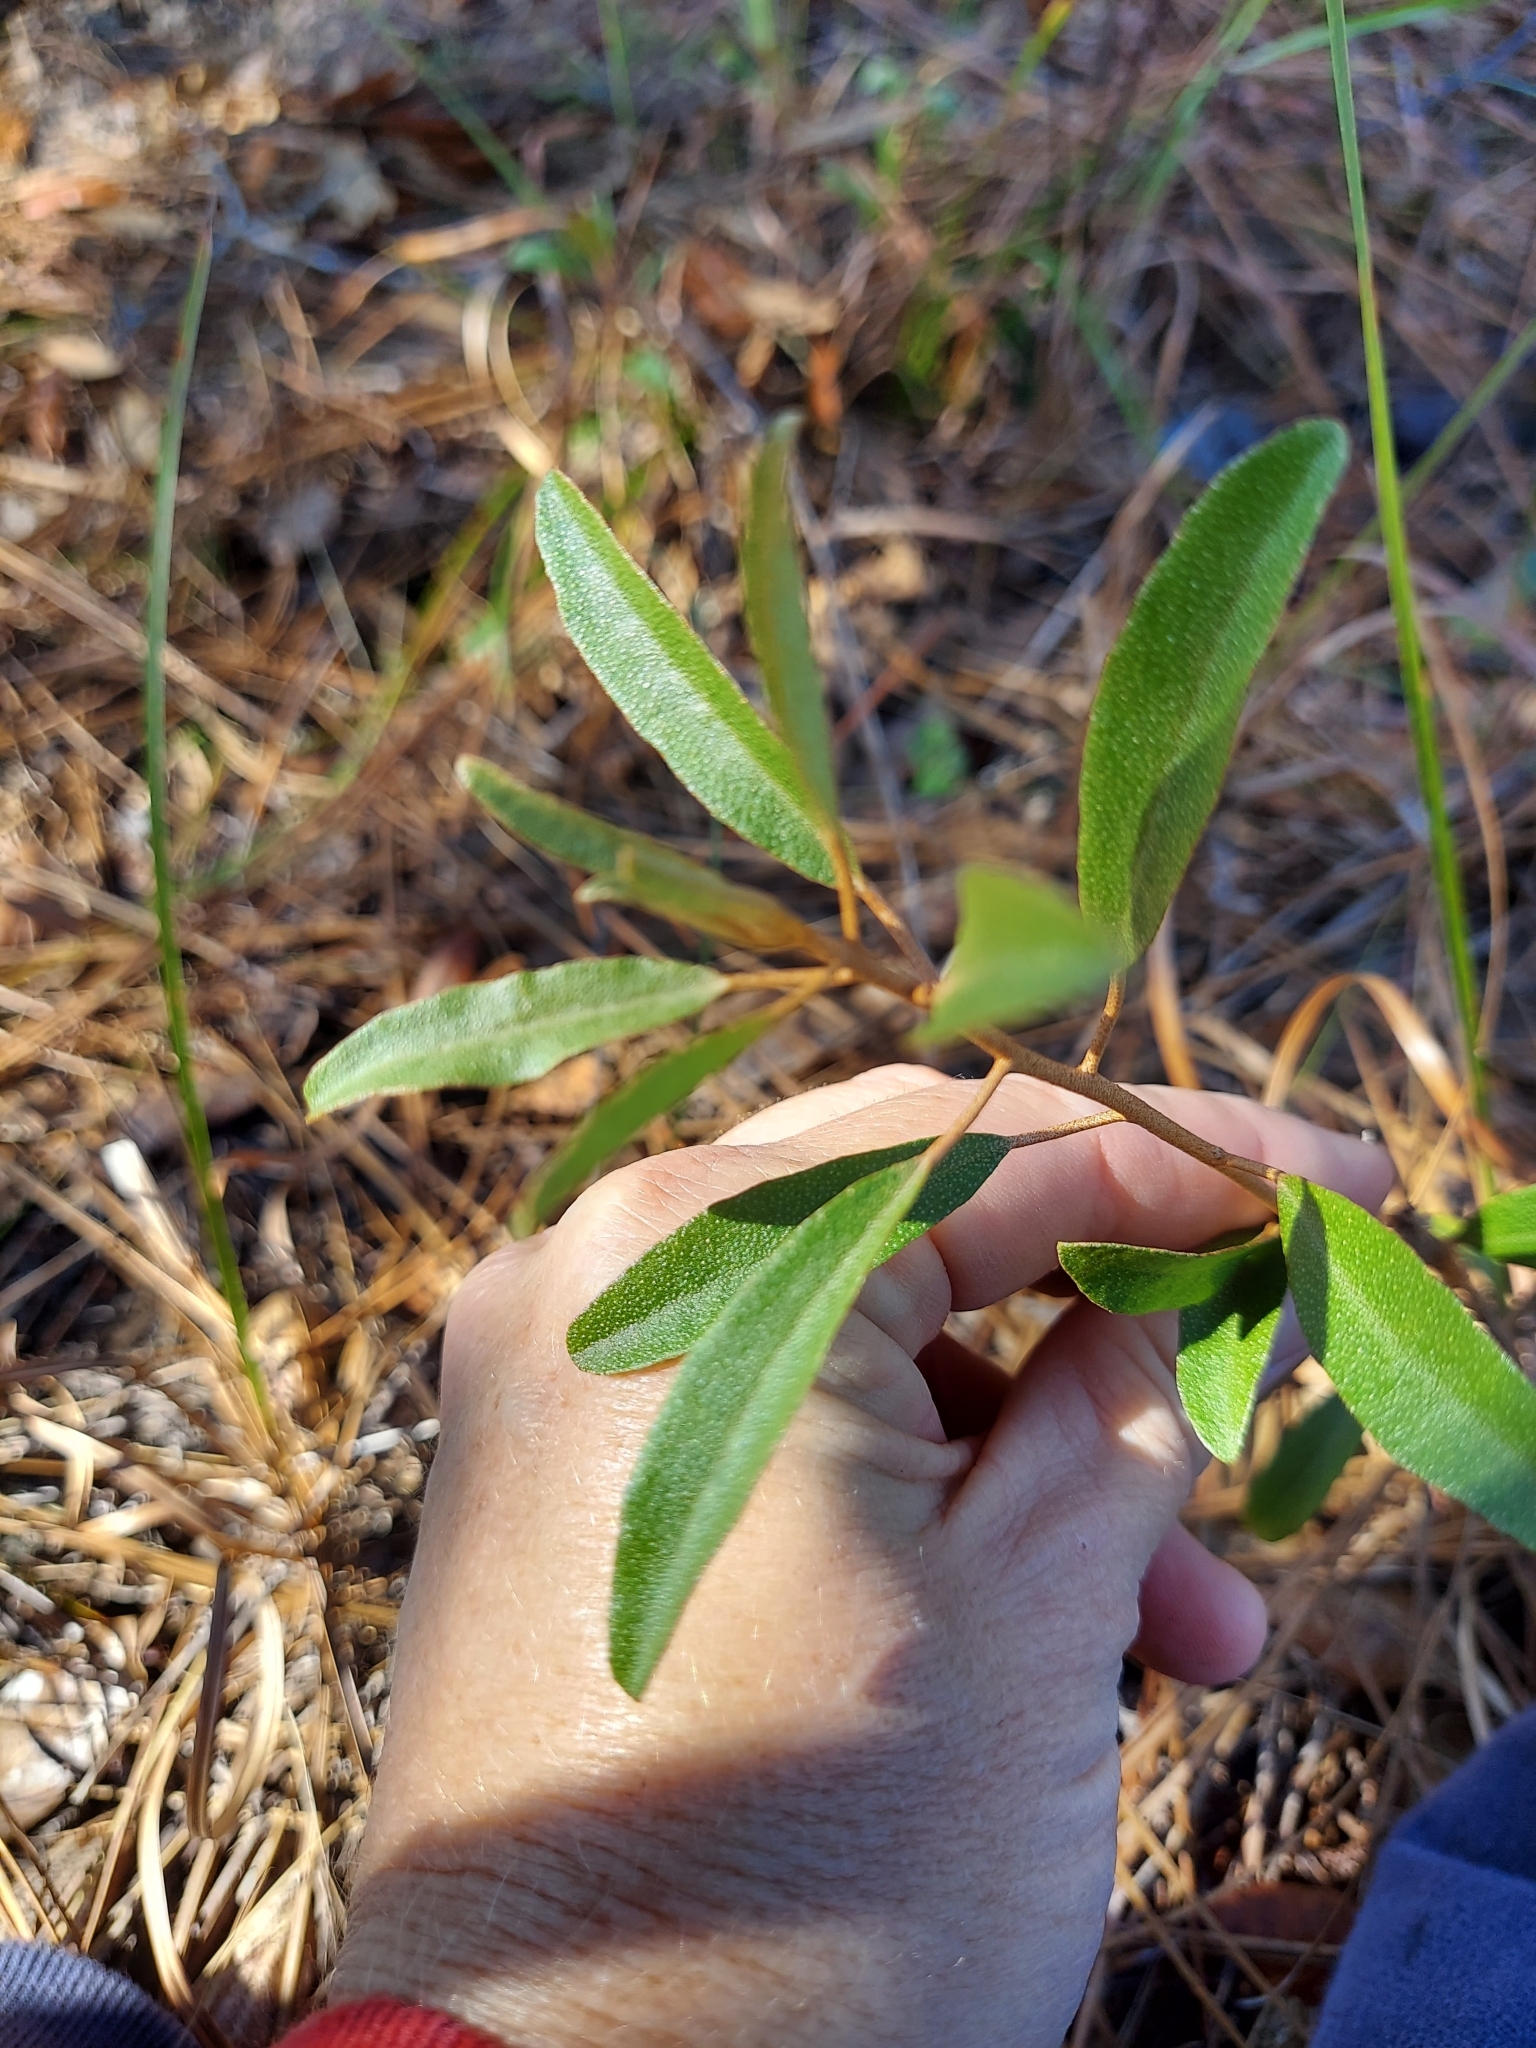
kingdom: Plantae
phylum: Tracheophyta
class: Magnoliopsida
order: Malpighiales
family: Euphorbiaceae
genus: Croton
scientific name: Croton argyranthemus
